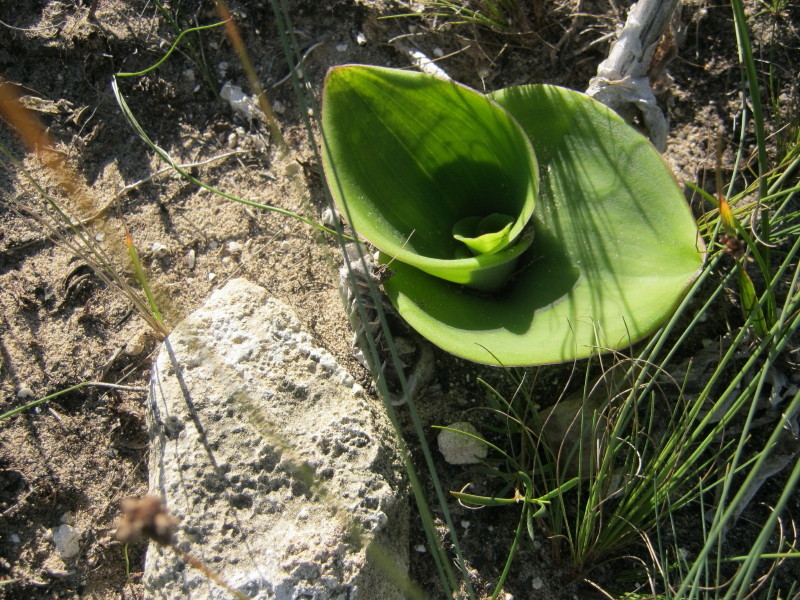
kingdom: Plantae
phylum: Tracheophyta
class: Liliopsida
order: Asparagales
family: Orchidaceae
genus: Satyrium
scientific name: Satyrium carneum
